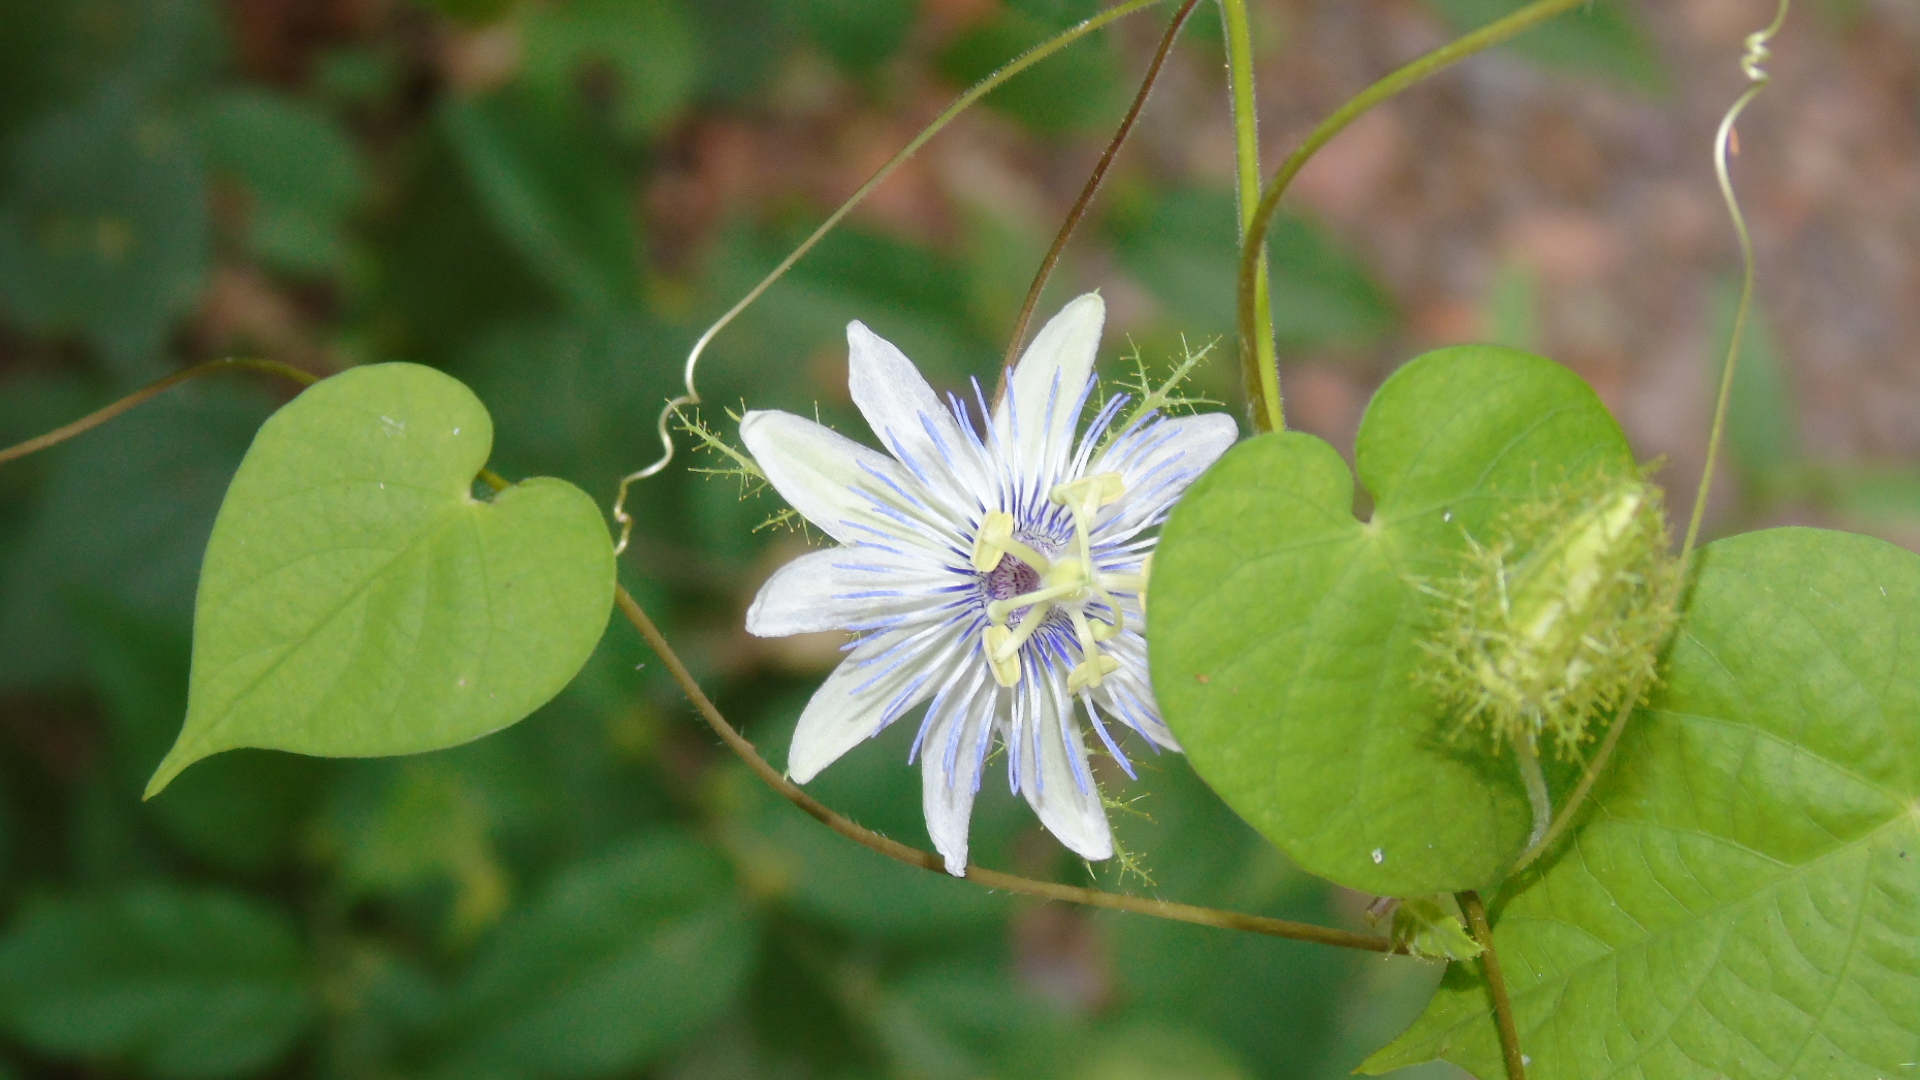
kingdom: Plantae
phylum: Tracheophyta
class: Magnoliopsida
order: Malpighiales
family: Passifloraceae
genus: Passiflora
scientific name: Passiflora foetida
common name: Fetid passionflower
